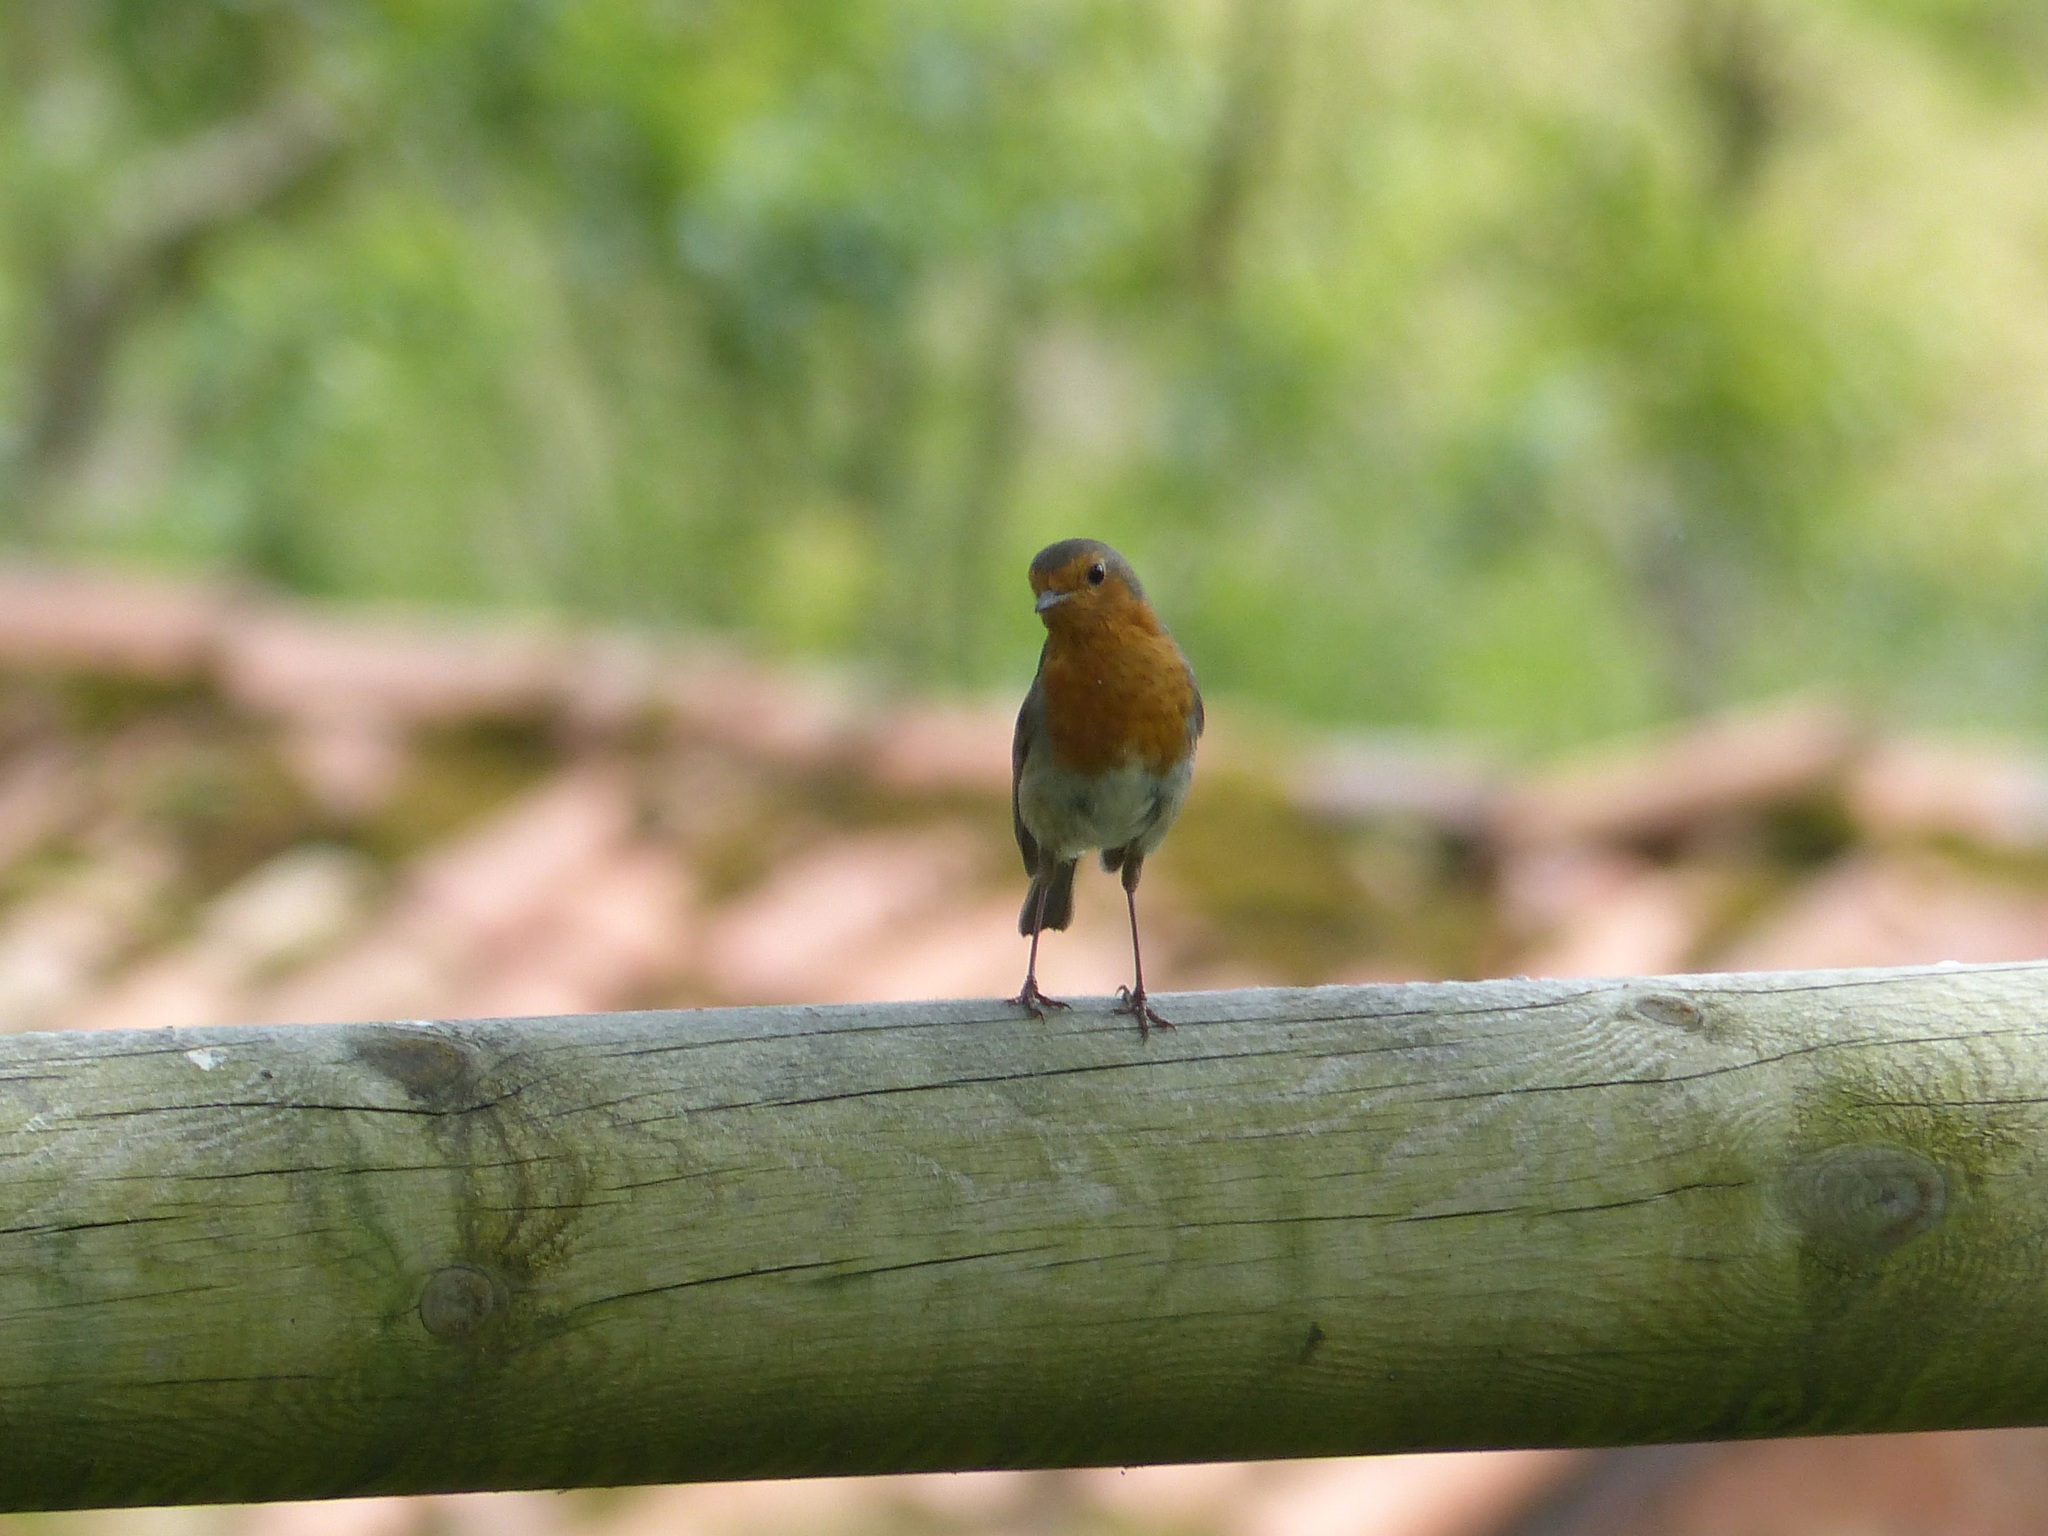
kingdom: Animalia
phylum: Chordata
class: Aves
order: Passeriformes
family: Muscicapidae
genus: Erithacus
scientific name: Erithacus rubecula
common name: European robin
